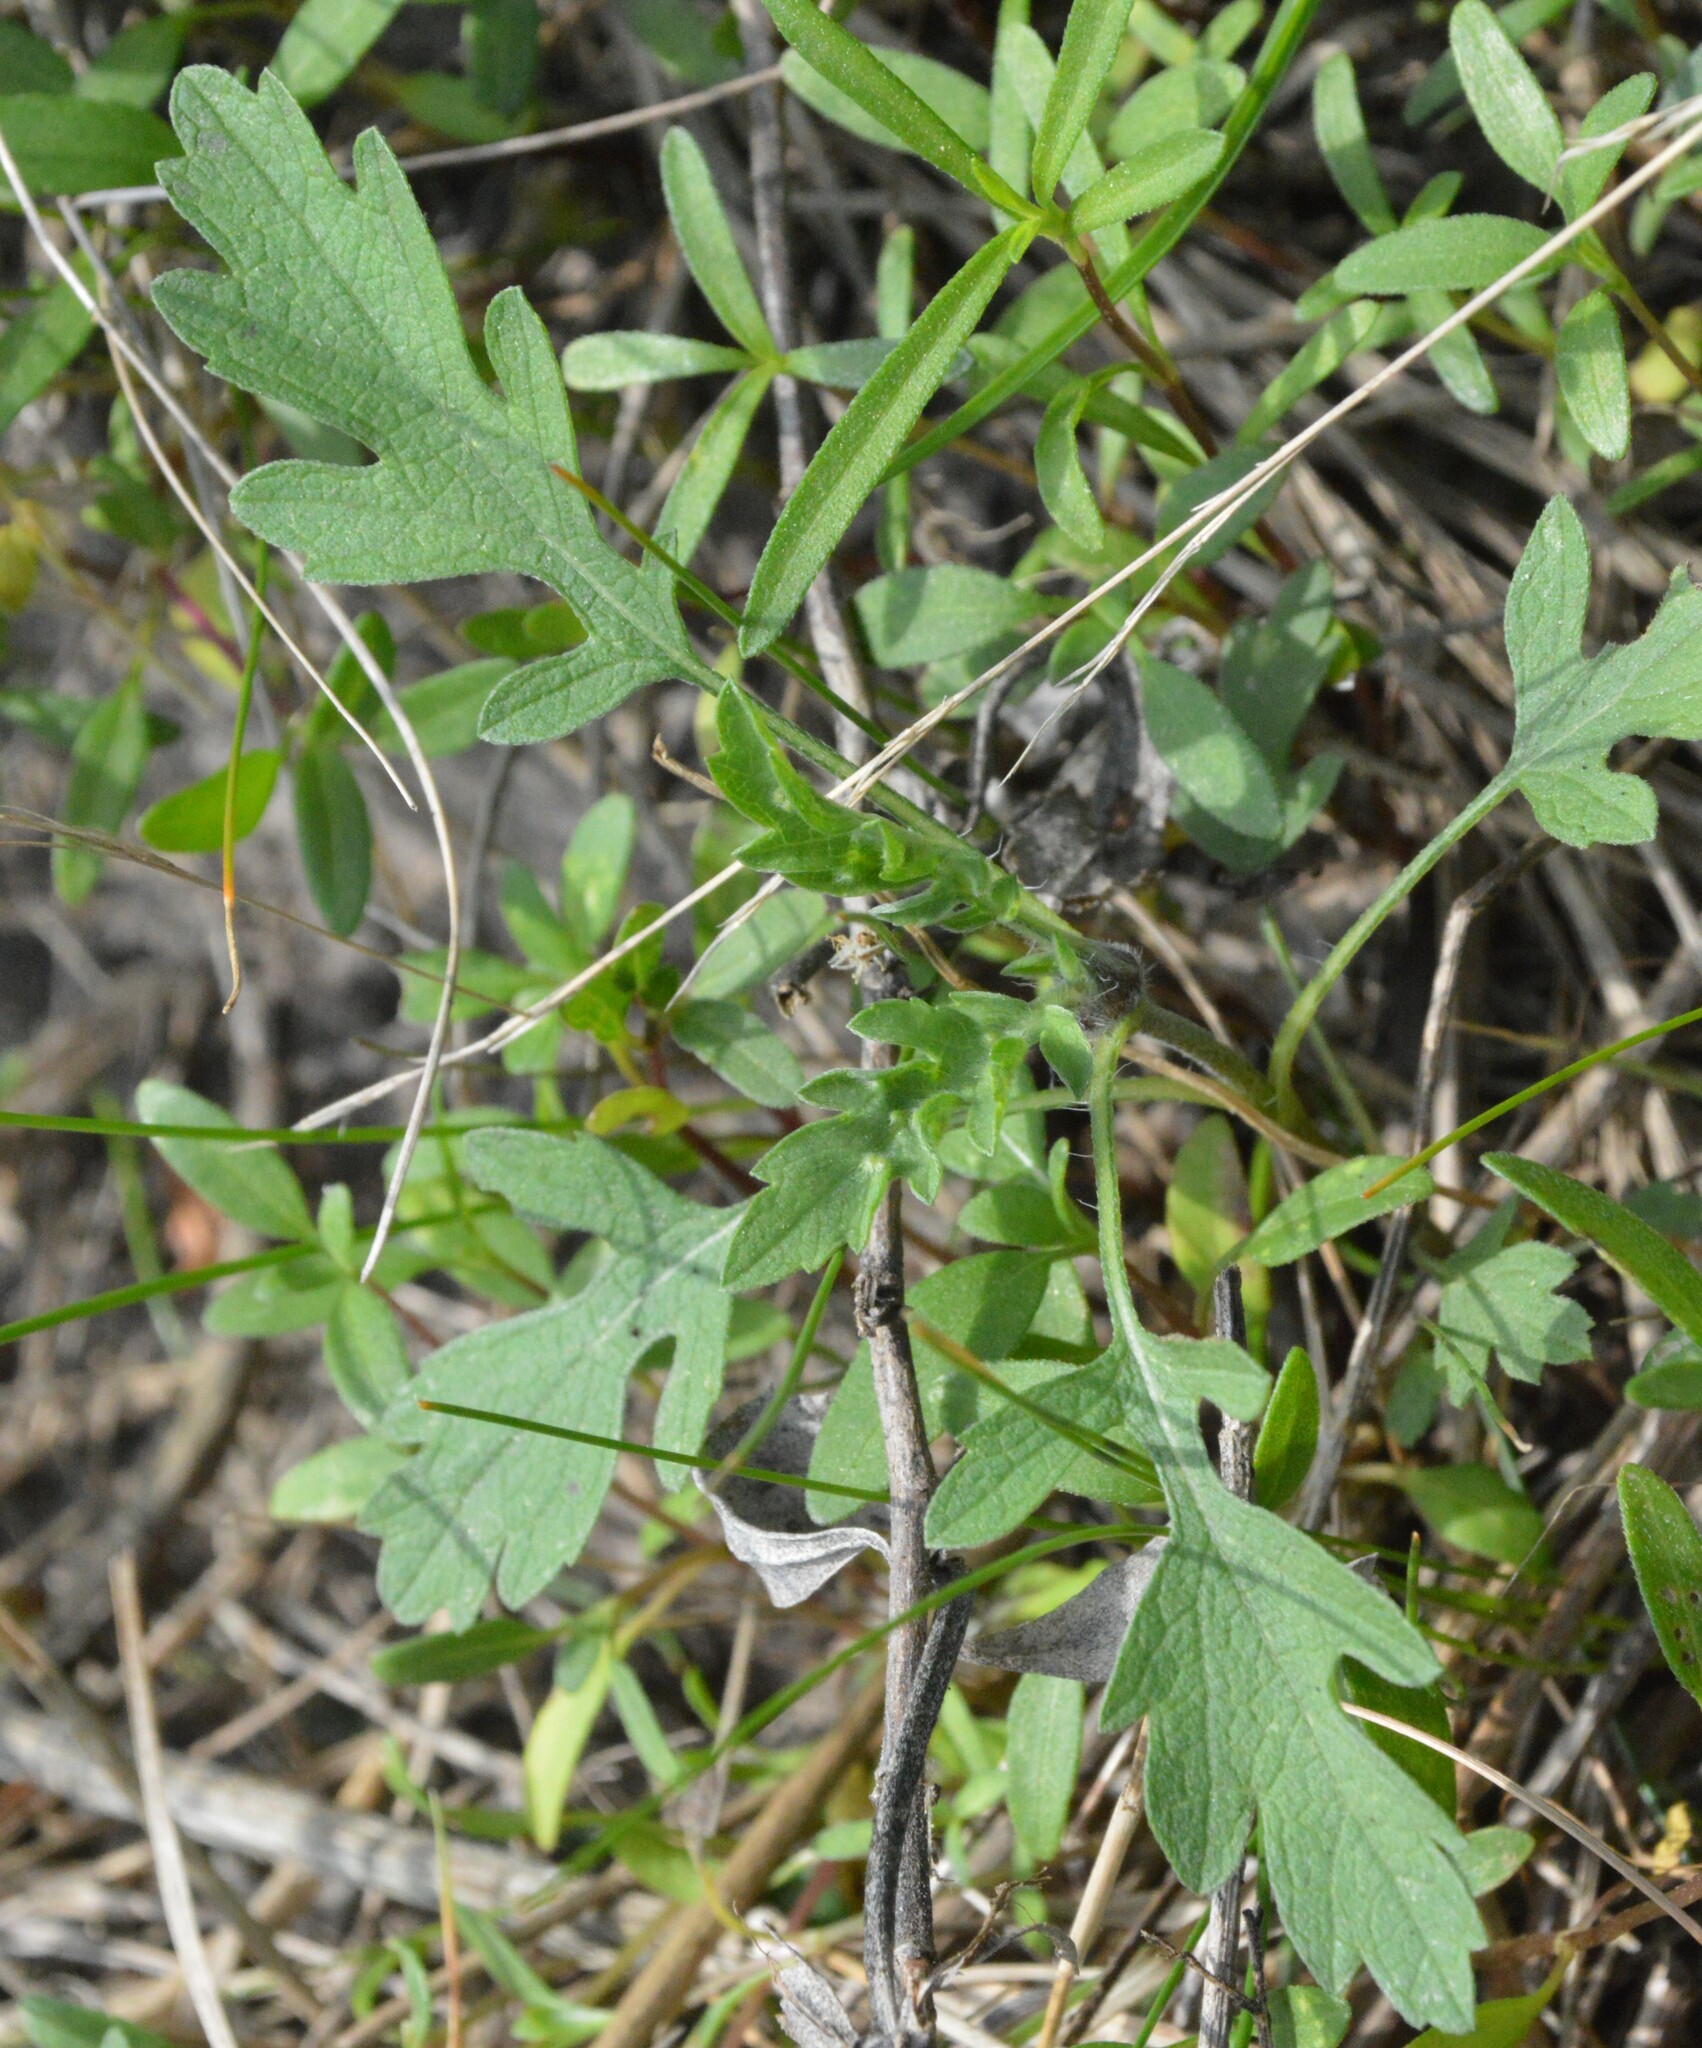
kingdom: Plantae
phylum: Tracheophyta
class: Magnoliopsida
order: Asterales
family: Asteraceae
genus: Ambrosia
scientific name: Ambrosia psilostachya
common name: Perennial ragweed
